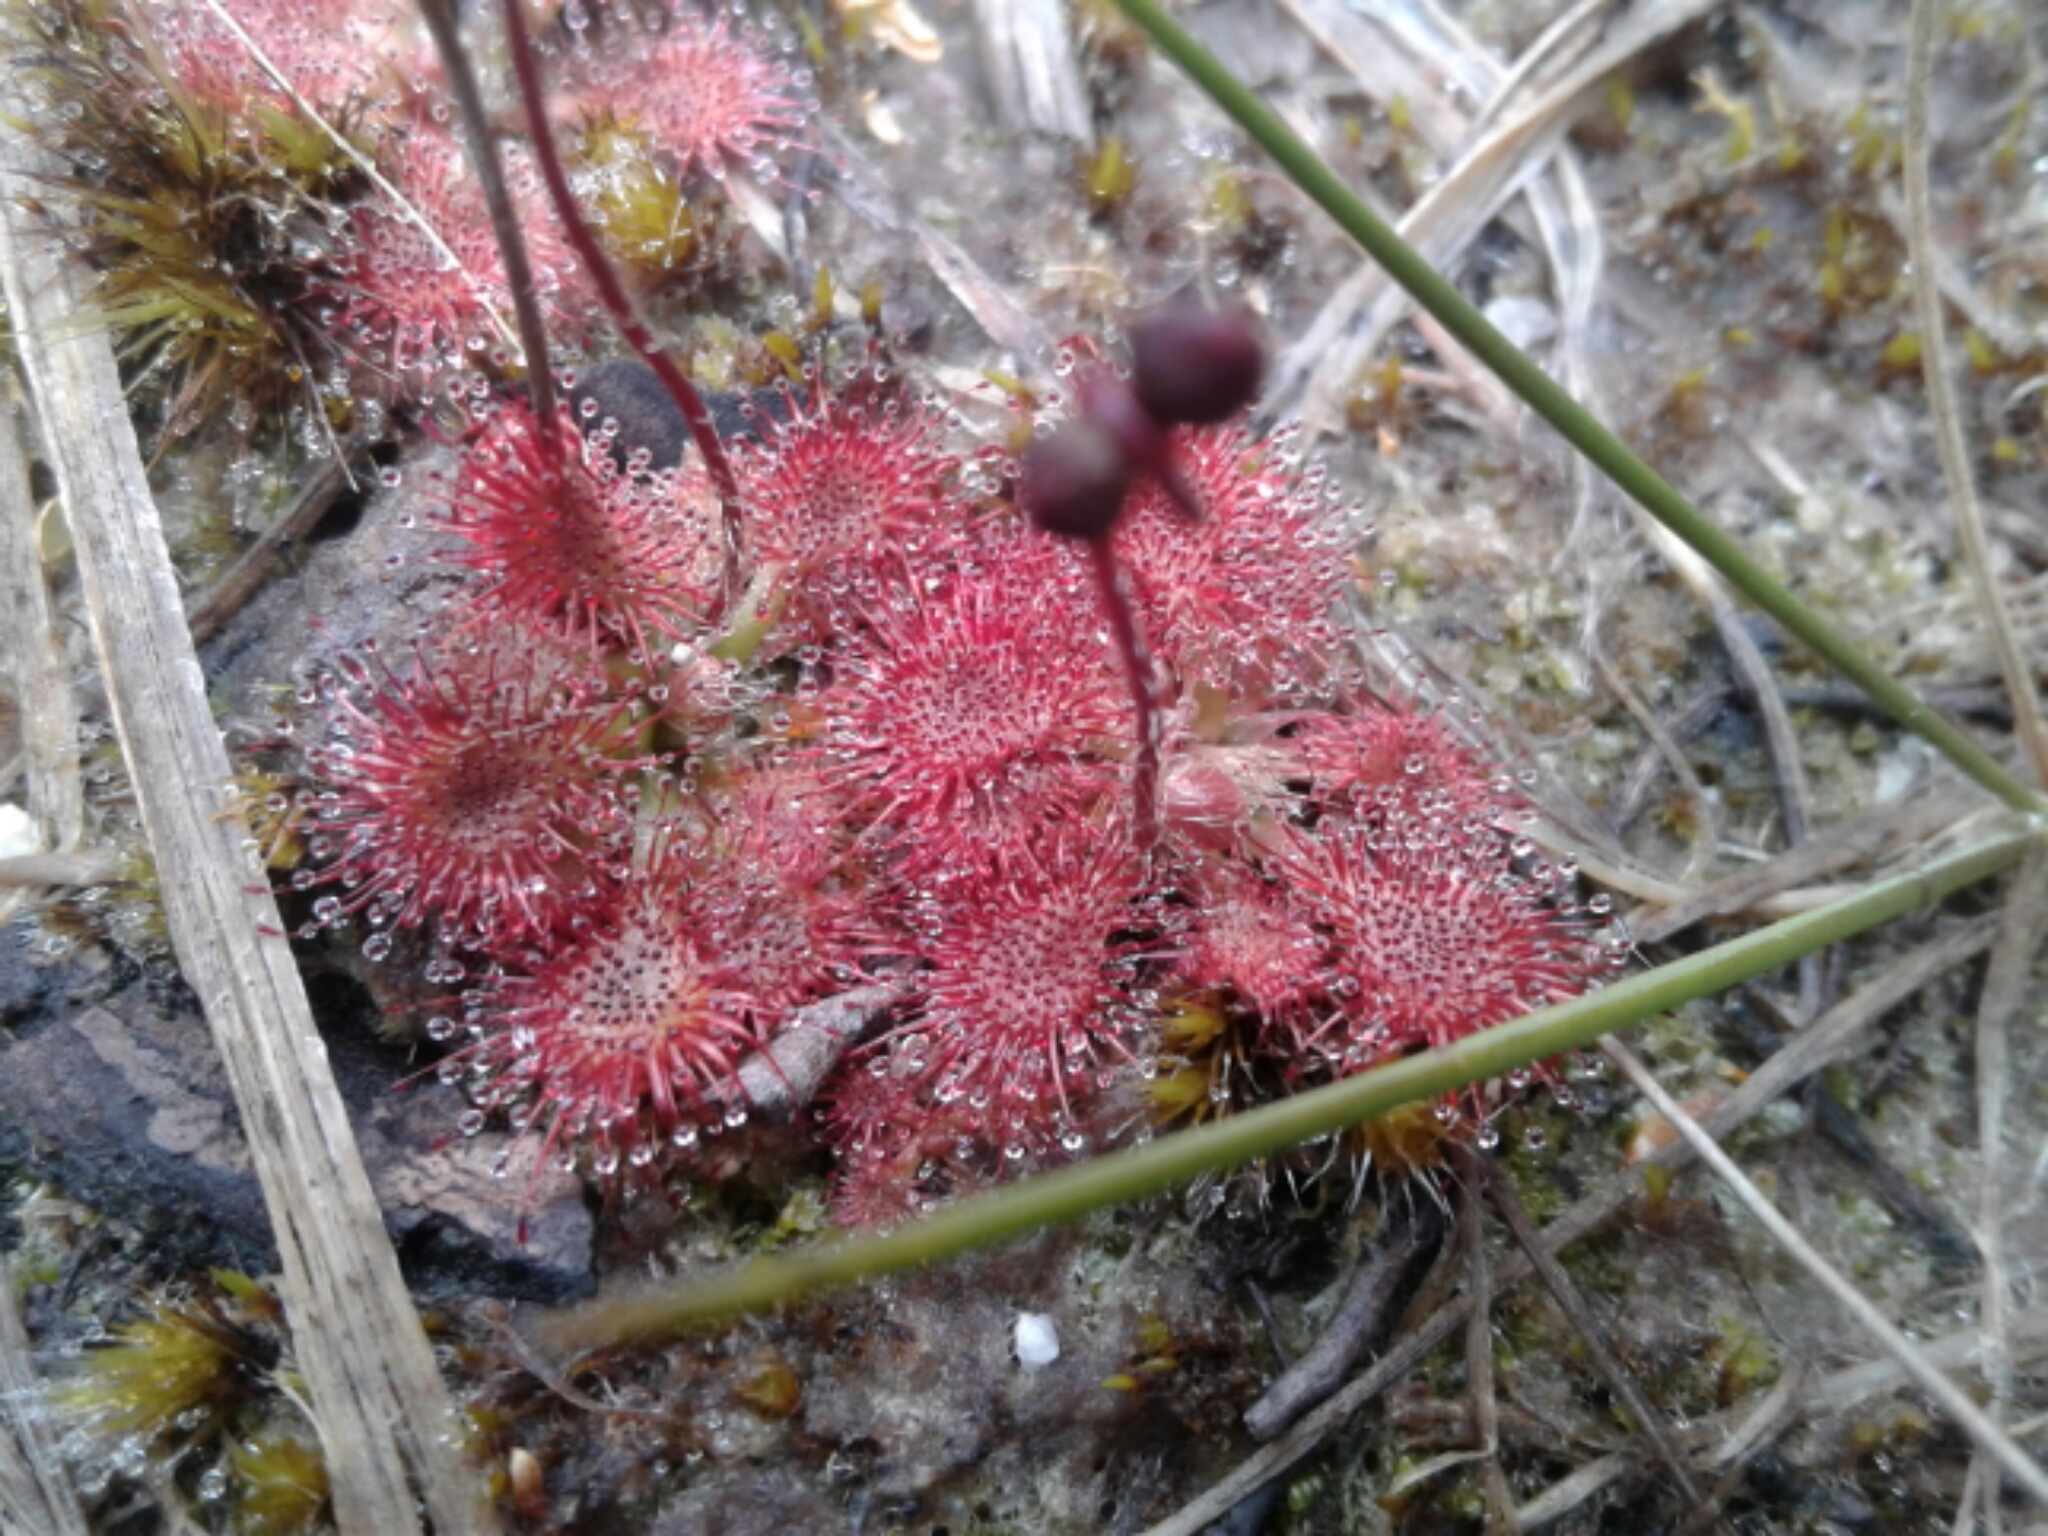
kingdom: Plantae
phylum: Tracheophyta
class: Magnoliopsida
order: Caryophyllales
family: Droseraceae
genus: Drosera
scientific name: Drosera spatulata
